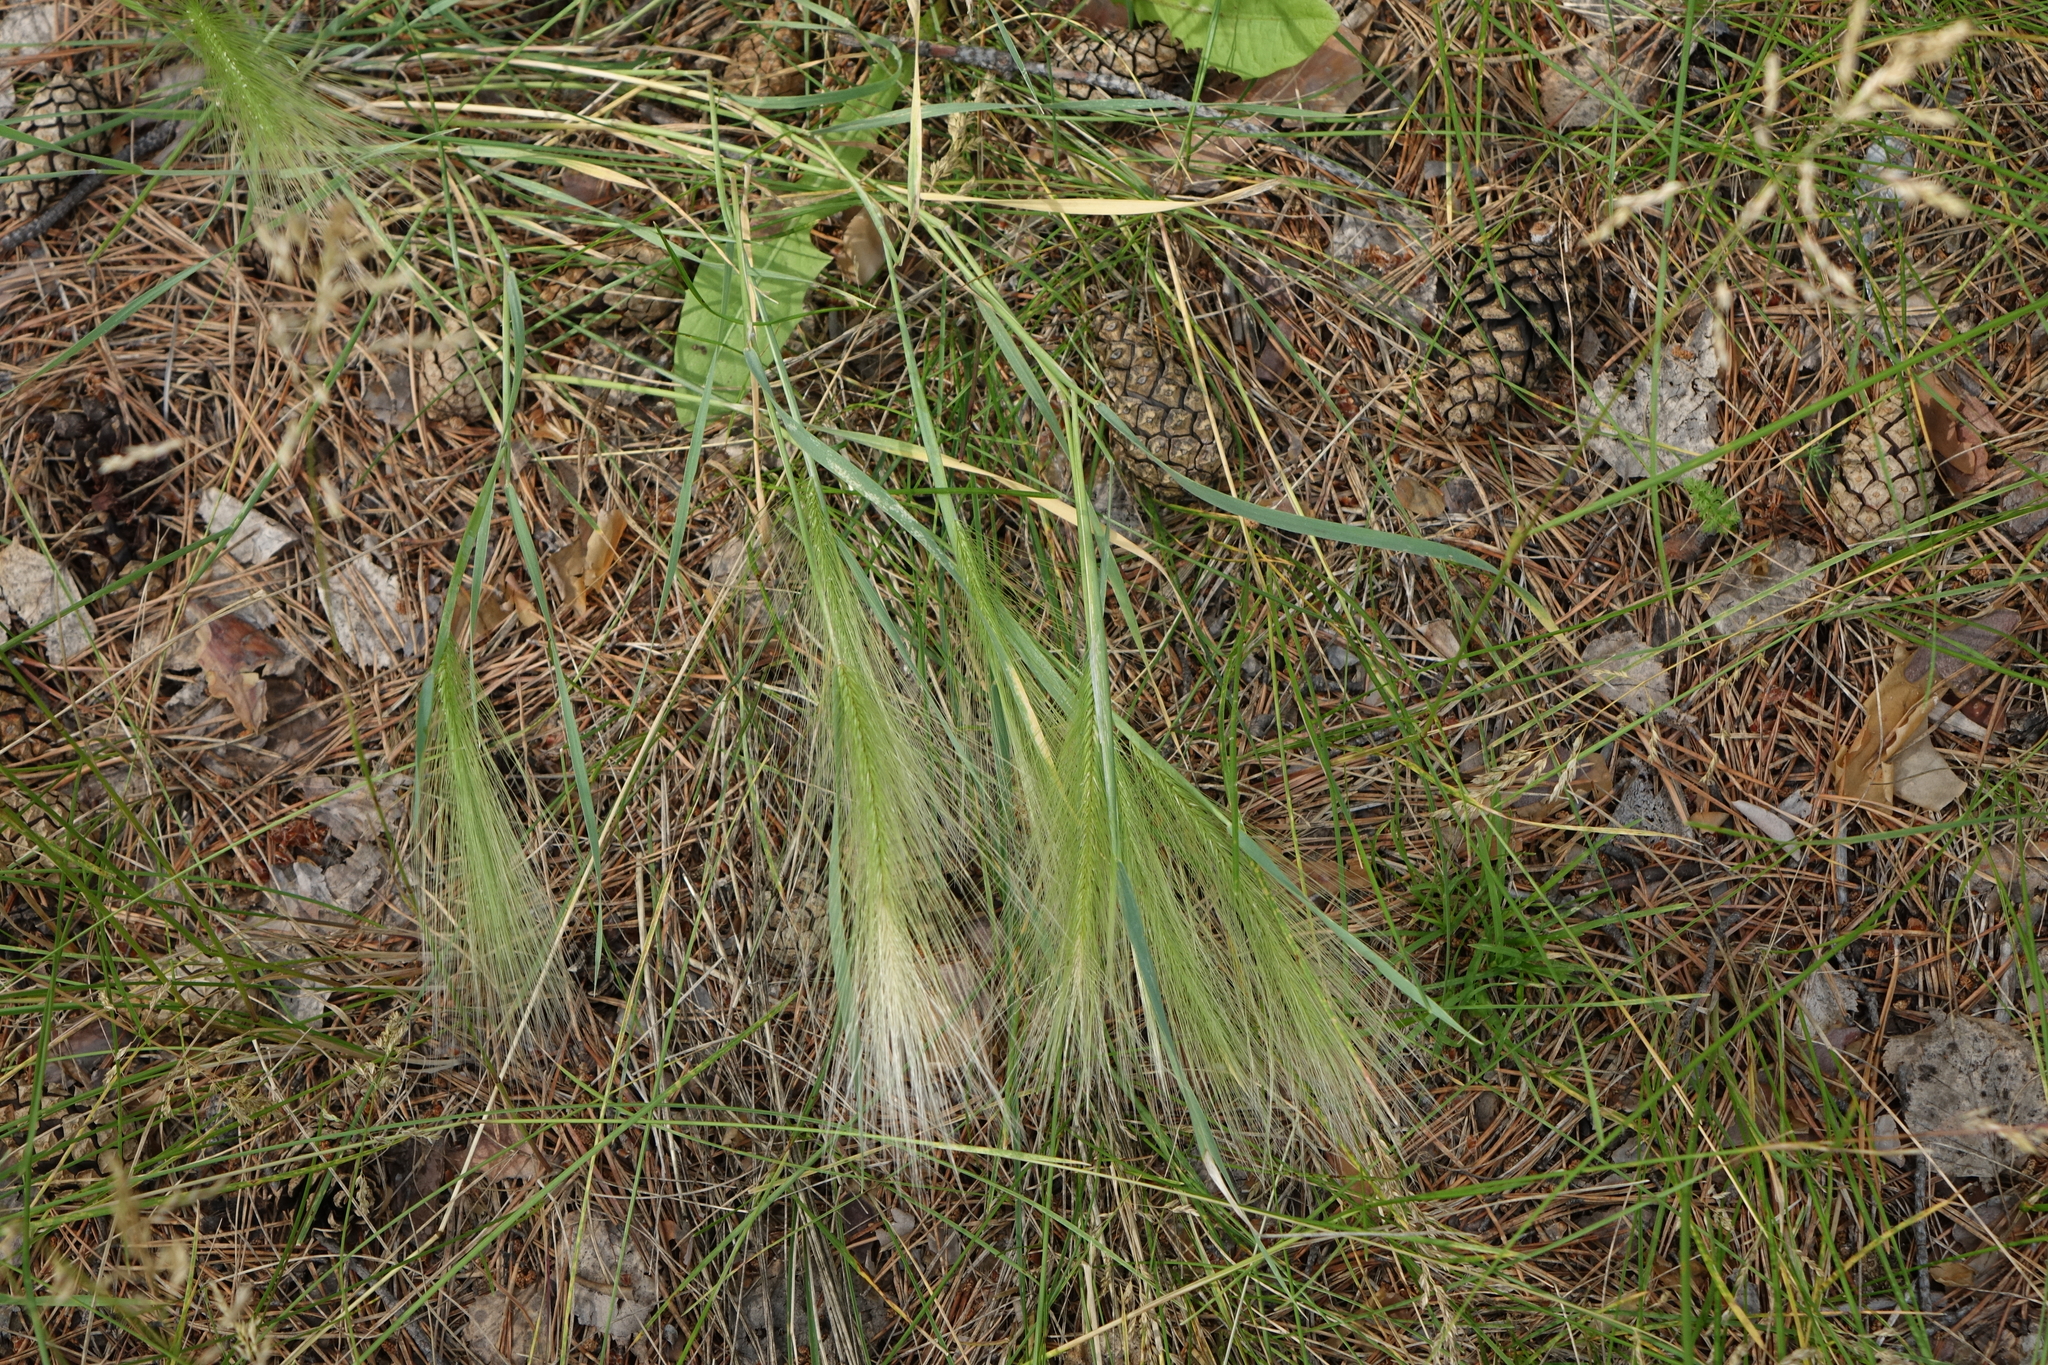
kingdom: Plantae
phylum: Tracheophyta
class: Liliopsida
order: Poales
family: Poaceae
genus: Hordeum
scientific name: Hordeum jubatum
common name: Foxtail barley
